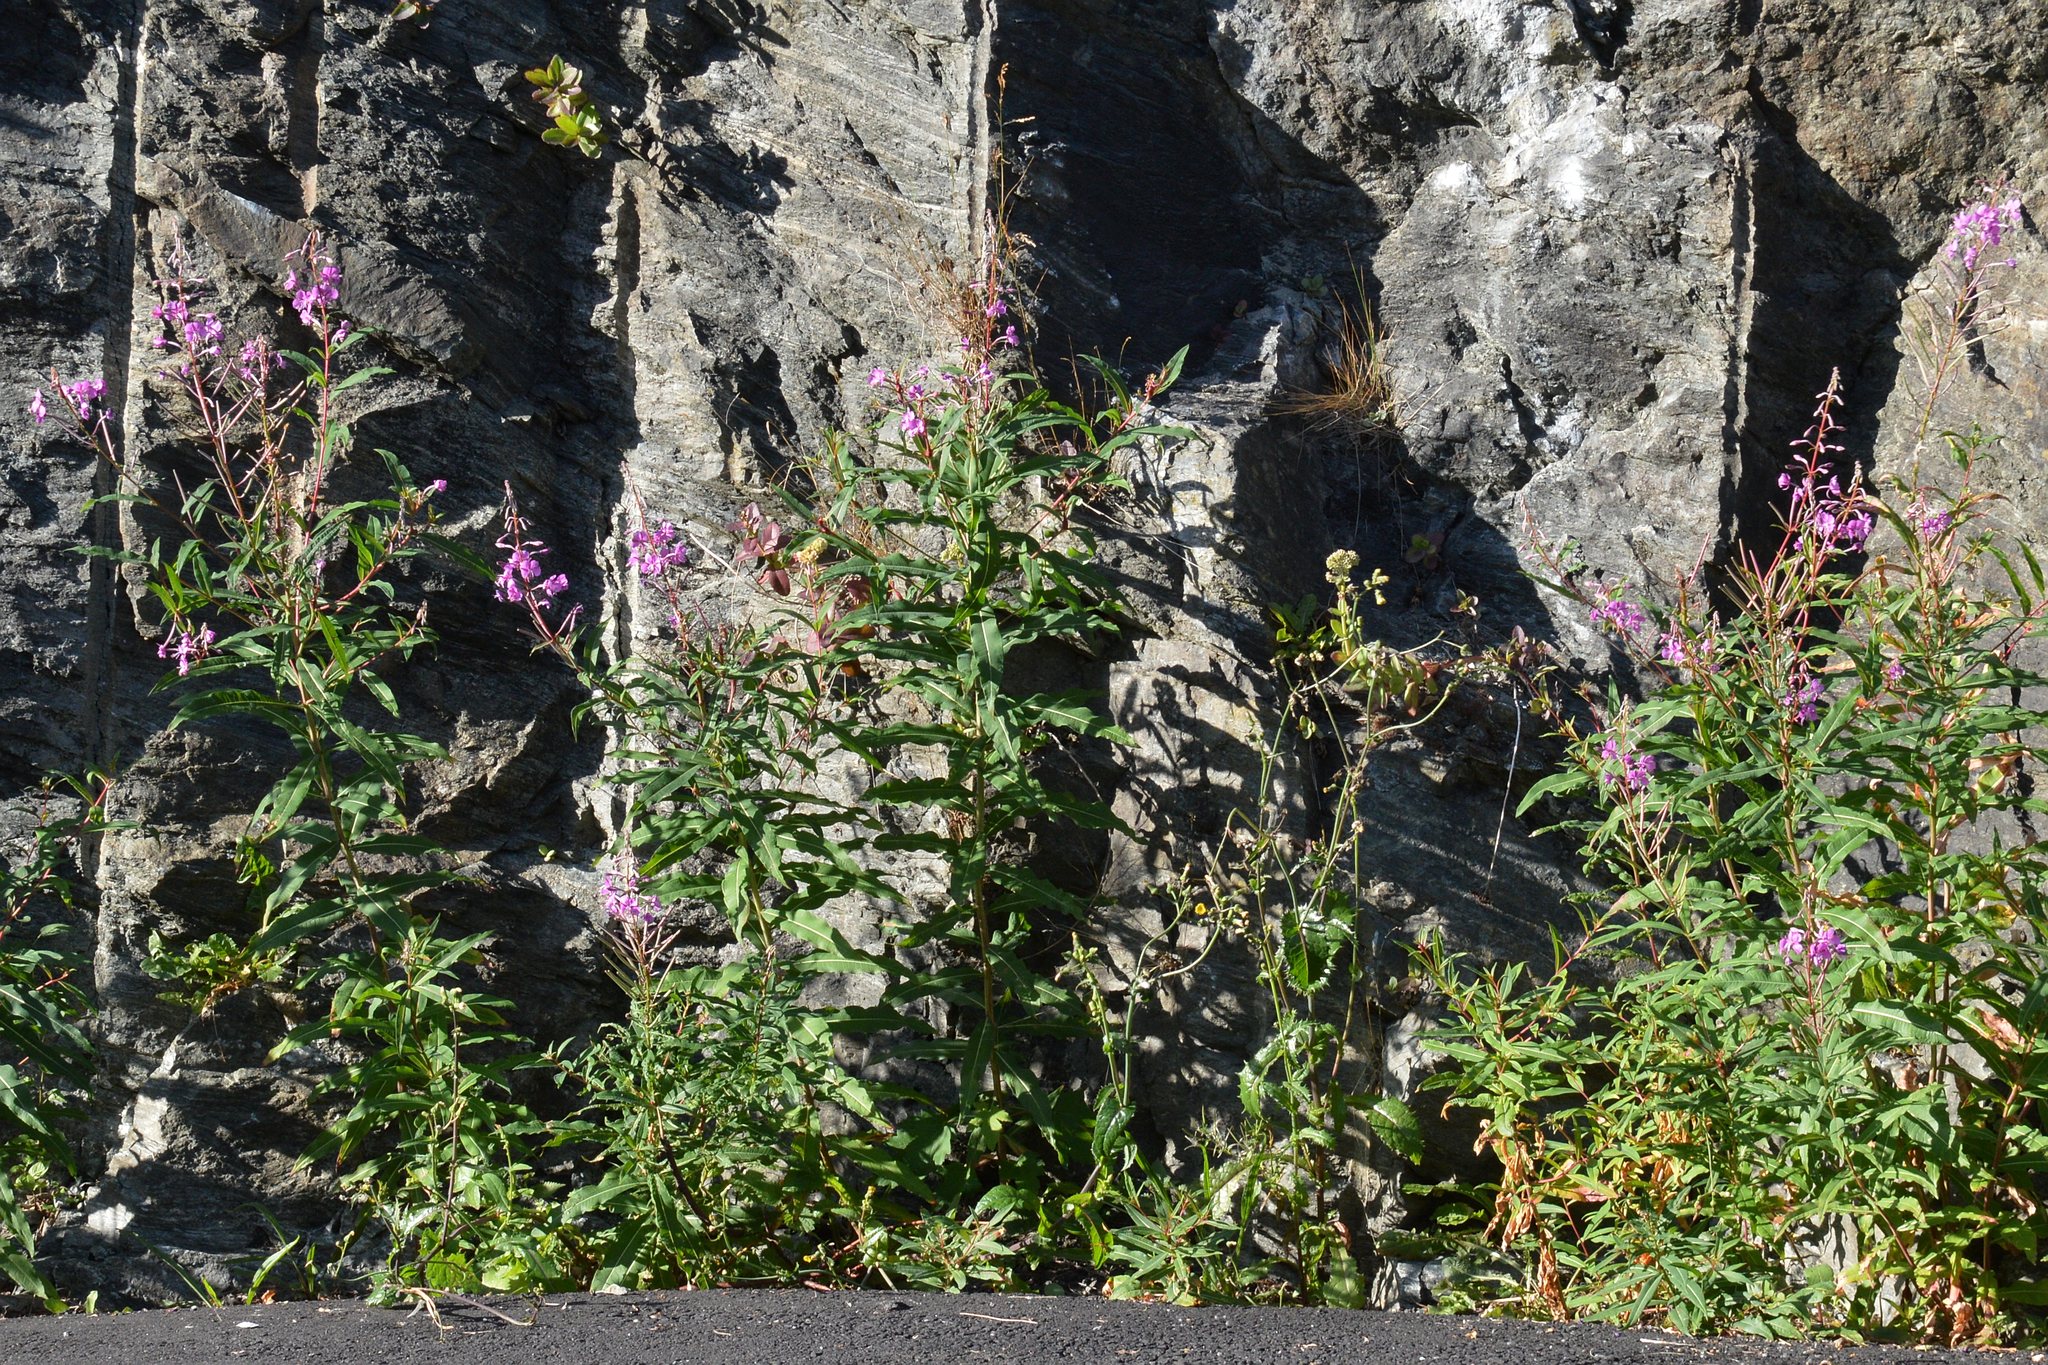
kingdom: Plantae
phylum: Tracheophyta
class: Magnoliopsida
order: Myrtales
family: Onagraceae
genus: Chamaenerion
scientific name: Chamaenerion angustifolium
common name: Fireweed
